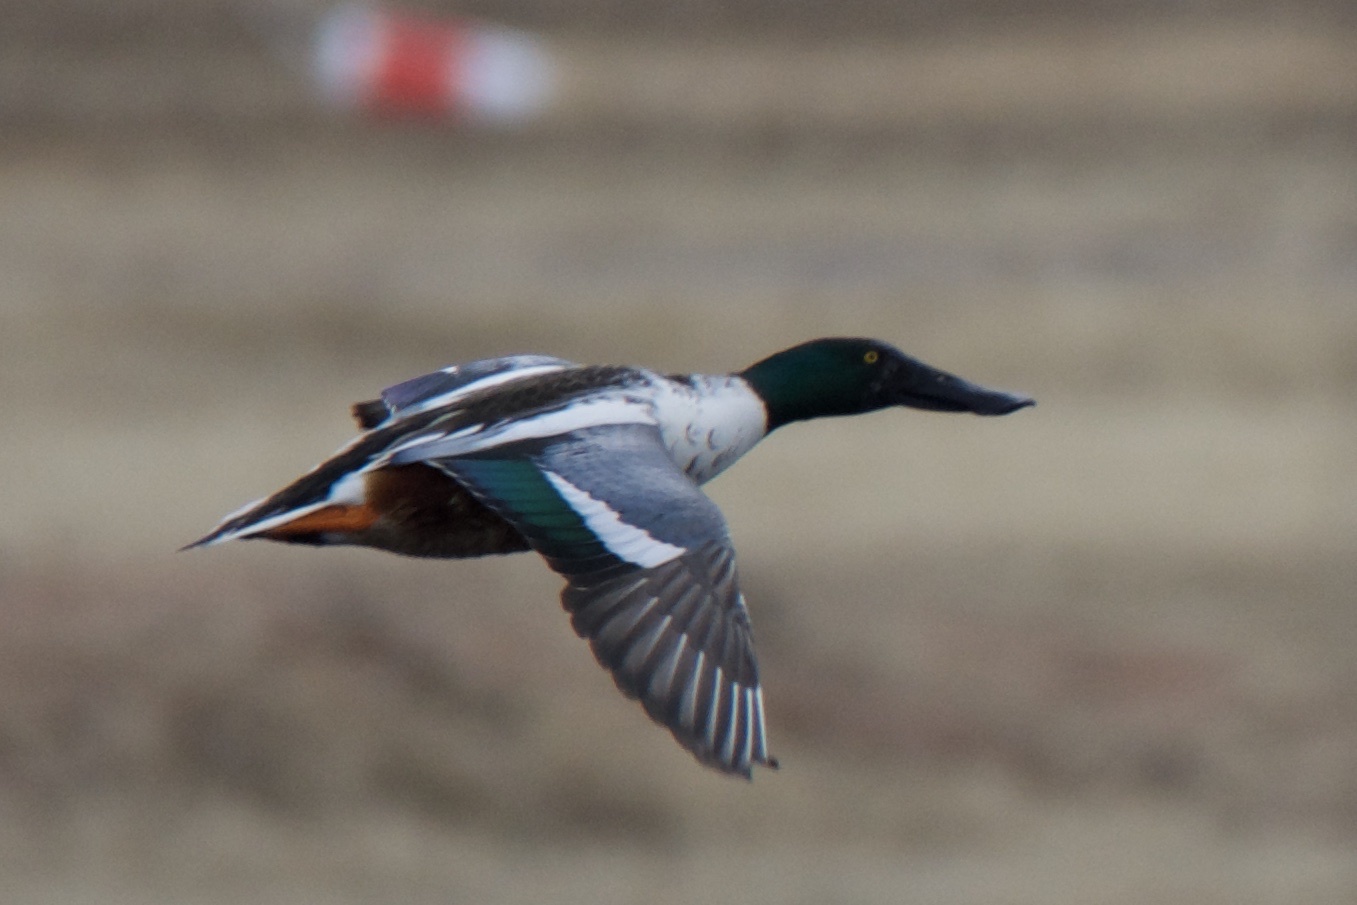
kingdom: Animalia
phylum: Chordata
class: Aves
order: Anseriformes
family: Anatidae
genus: Spatula
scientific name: Spatula clypeata
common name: Northern shoveler
